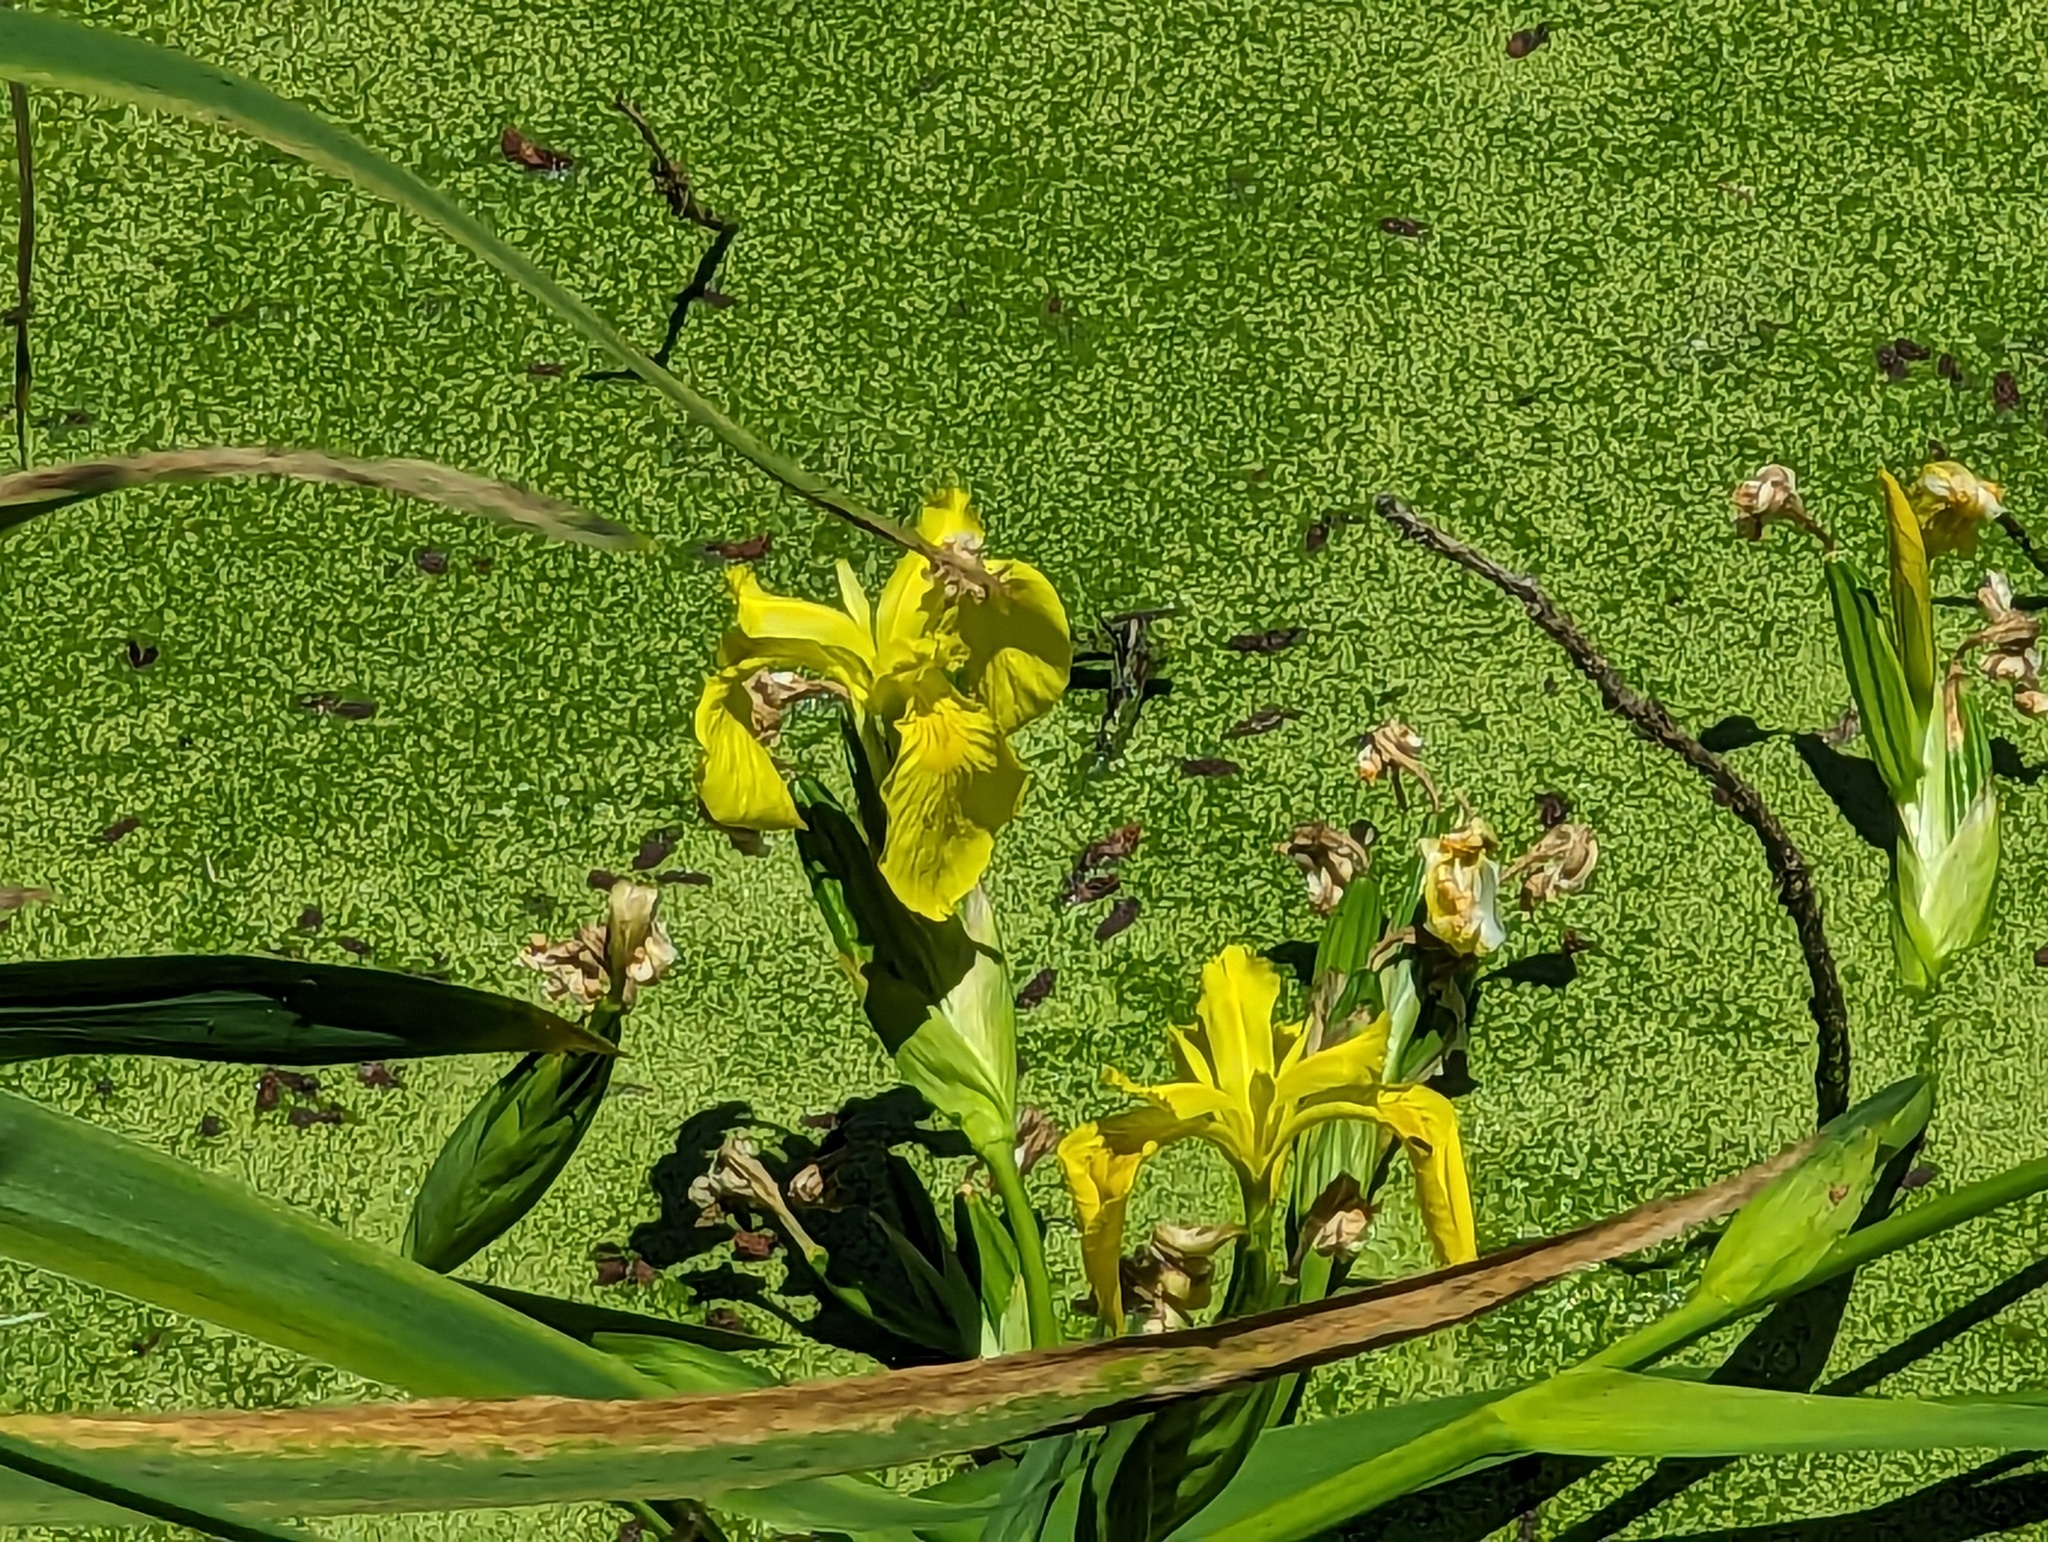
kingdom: Plantae
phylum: Tracheophyta
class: Liliopsida
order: Asparagales
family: Iridaceae
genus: Iris
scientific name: Iris pseudacorus
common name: Yellow flag
